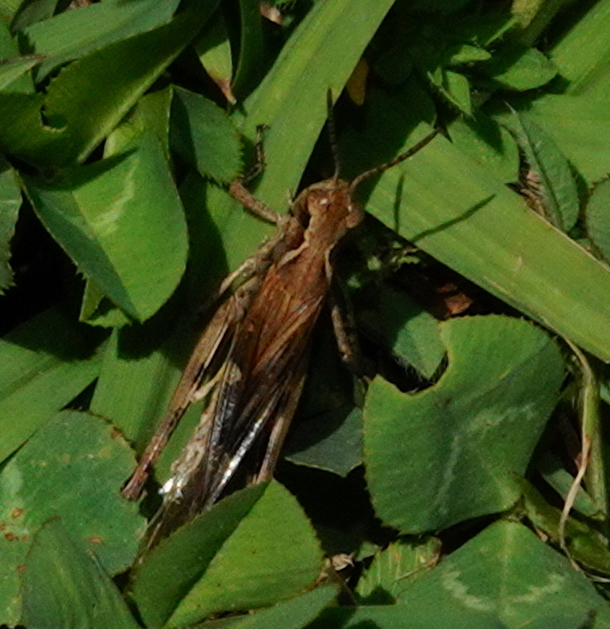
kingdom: Animalia
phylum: Arthropoda
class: Insecta
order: Orthoptera
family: Acrididae
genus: Aiolopus
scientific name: Aiolopus thalassinus
